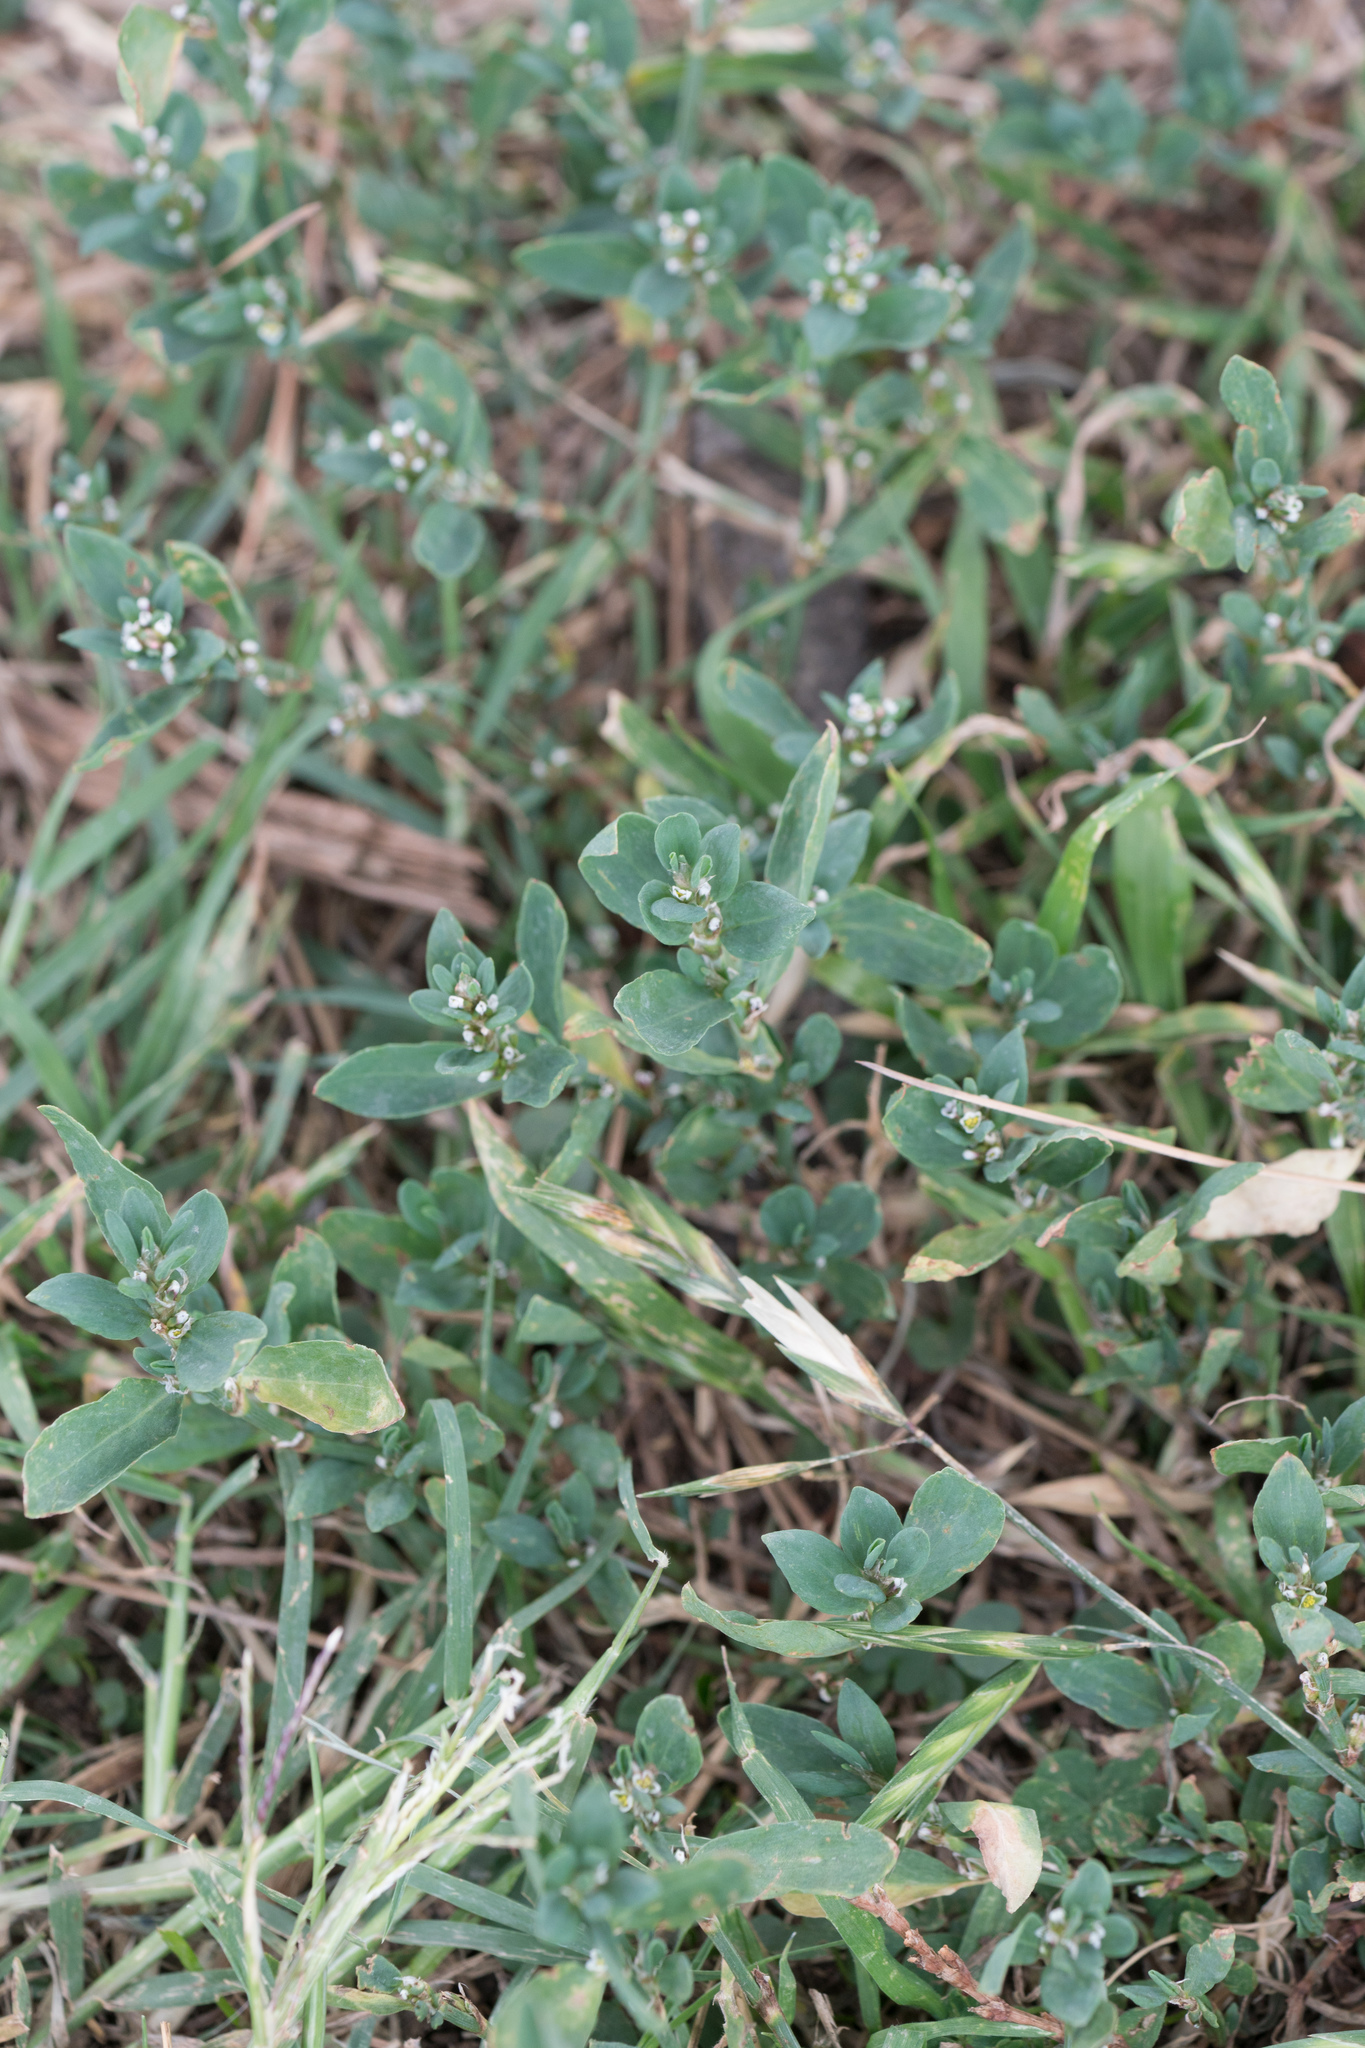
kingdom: Plantae
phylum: Tracheophyta
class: Magnoliopsida
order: Caryophyllales
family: Polygonaceae
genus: Polygonum
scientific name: Polygonum aviculare
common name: Prostrate knotweed
